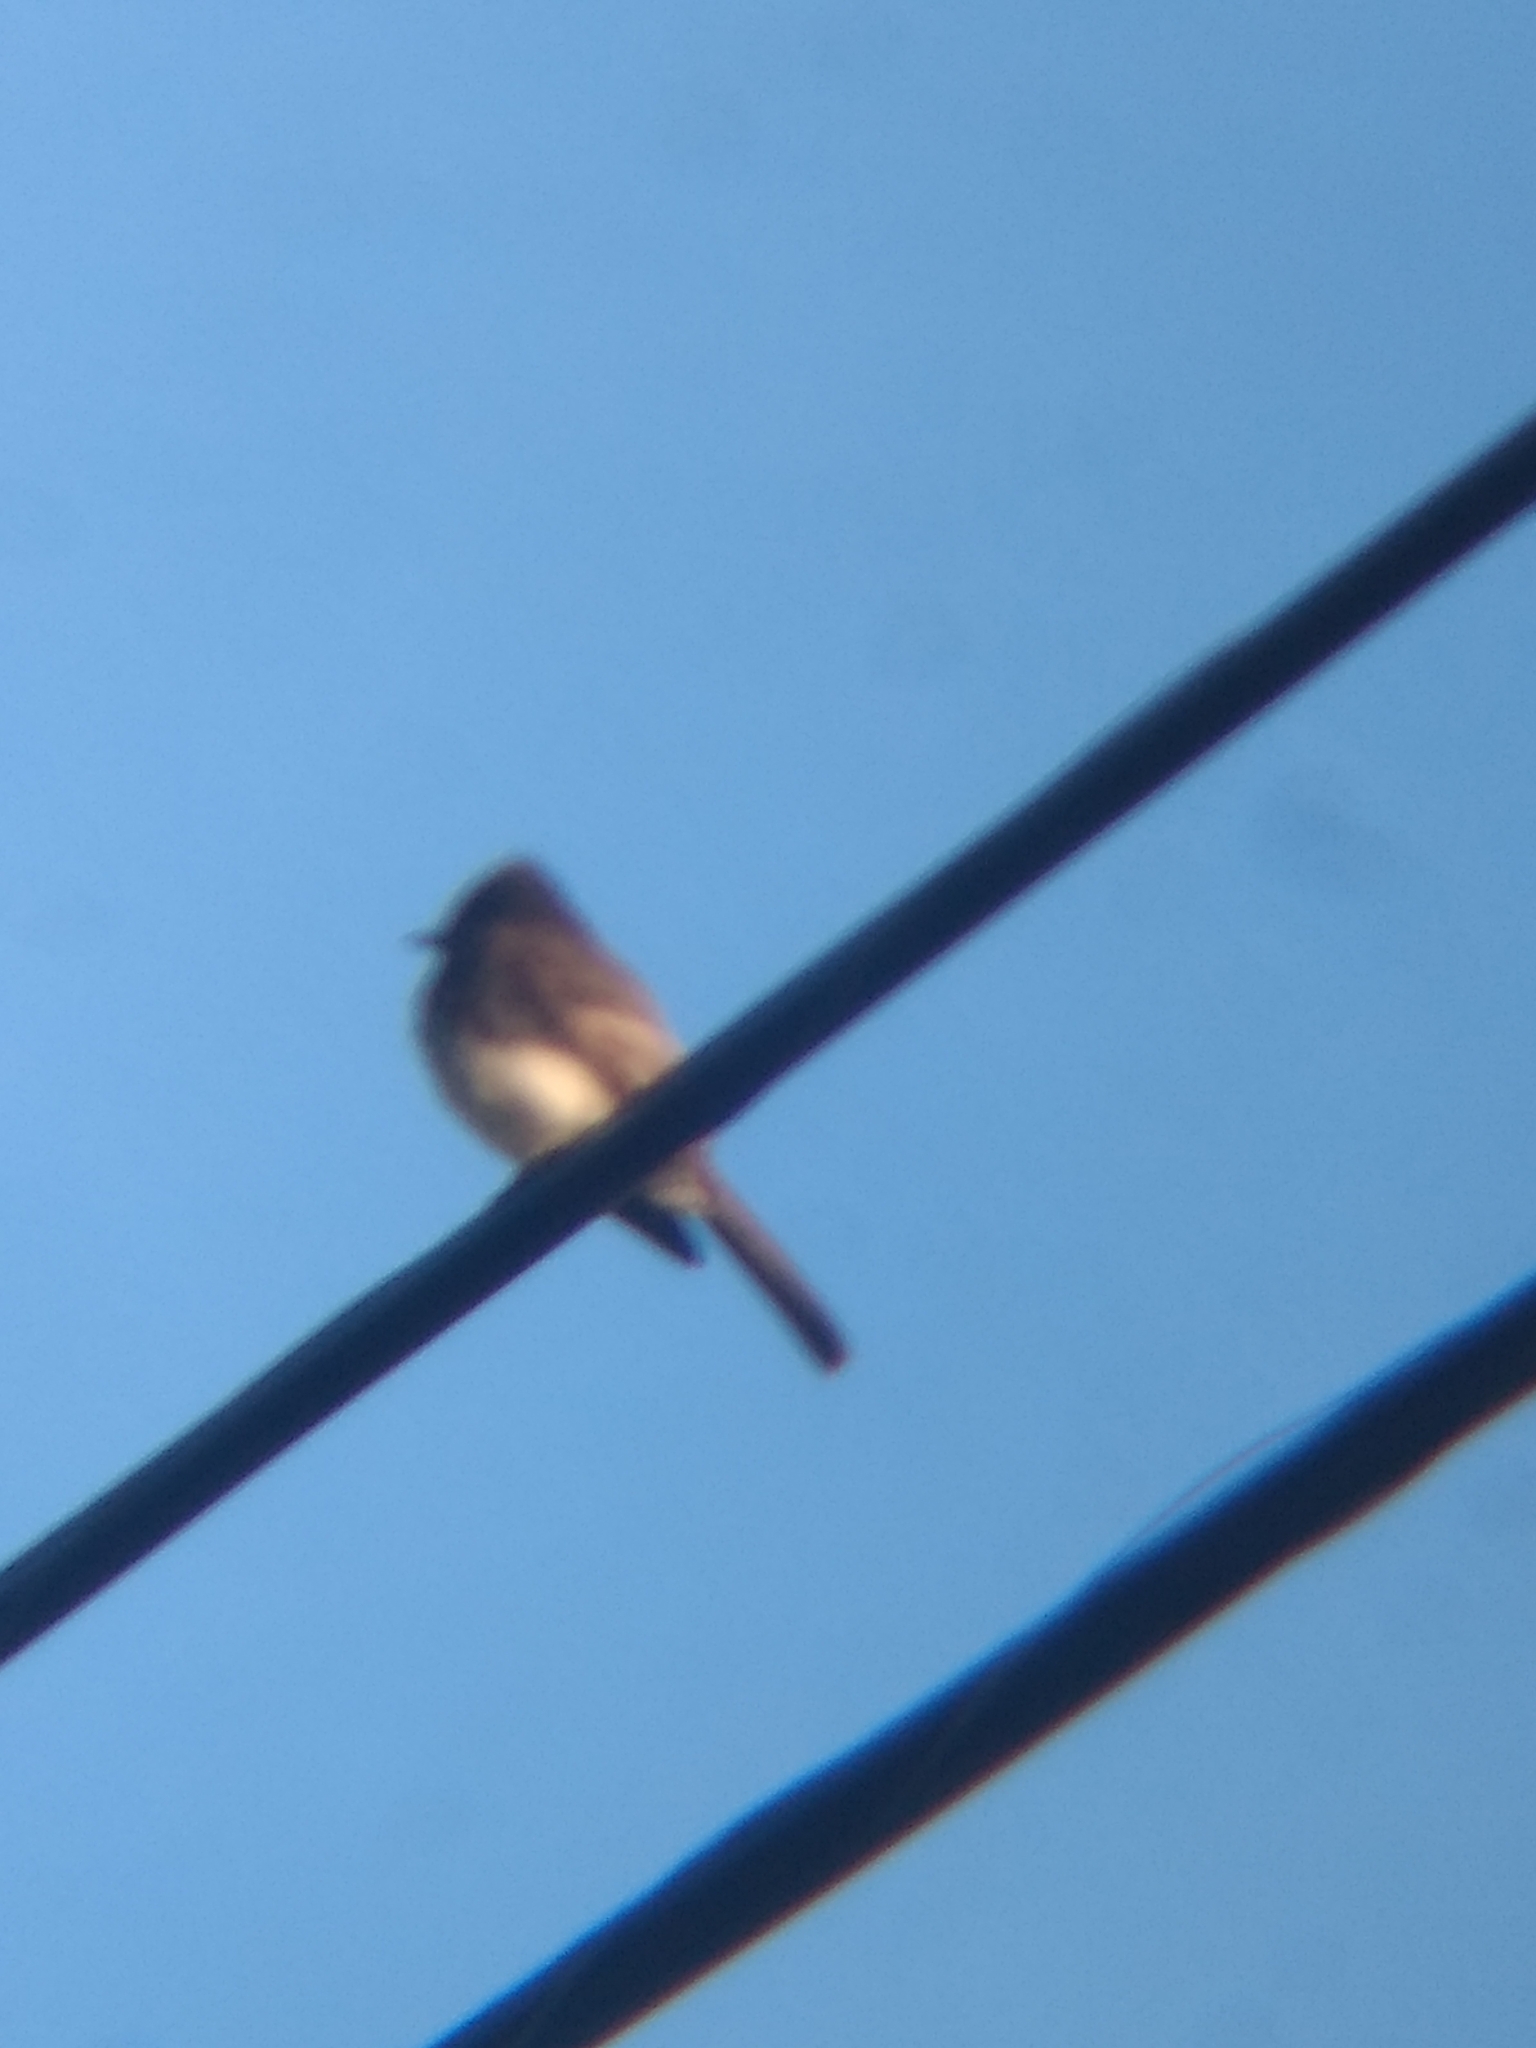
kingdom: Animalia
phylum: Chordata
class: Aves
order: Passeriformes
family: Tyrannidae
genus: Sayornis
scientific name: Sayornis nigricans
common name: Black phoebe
